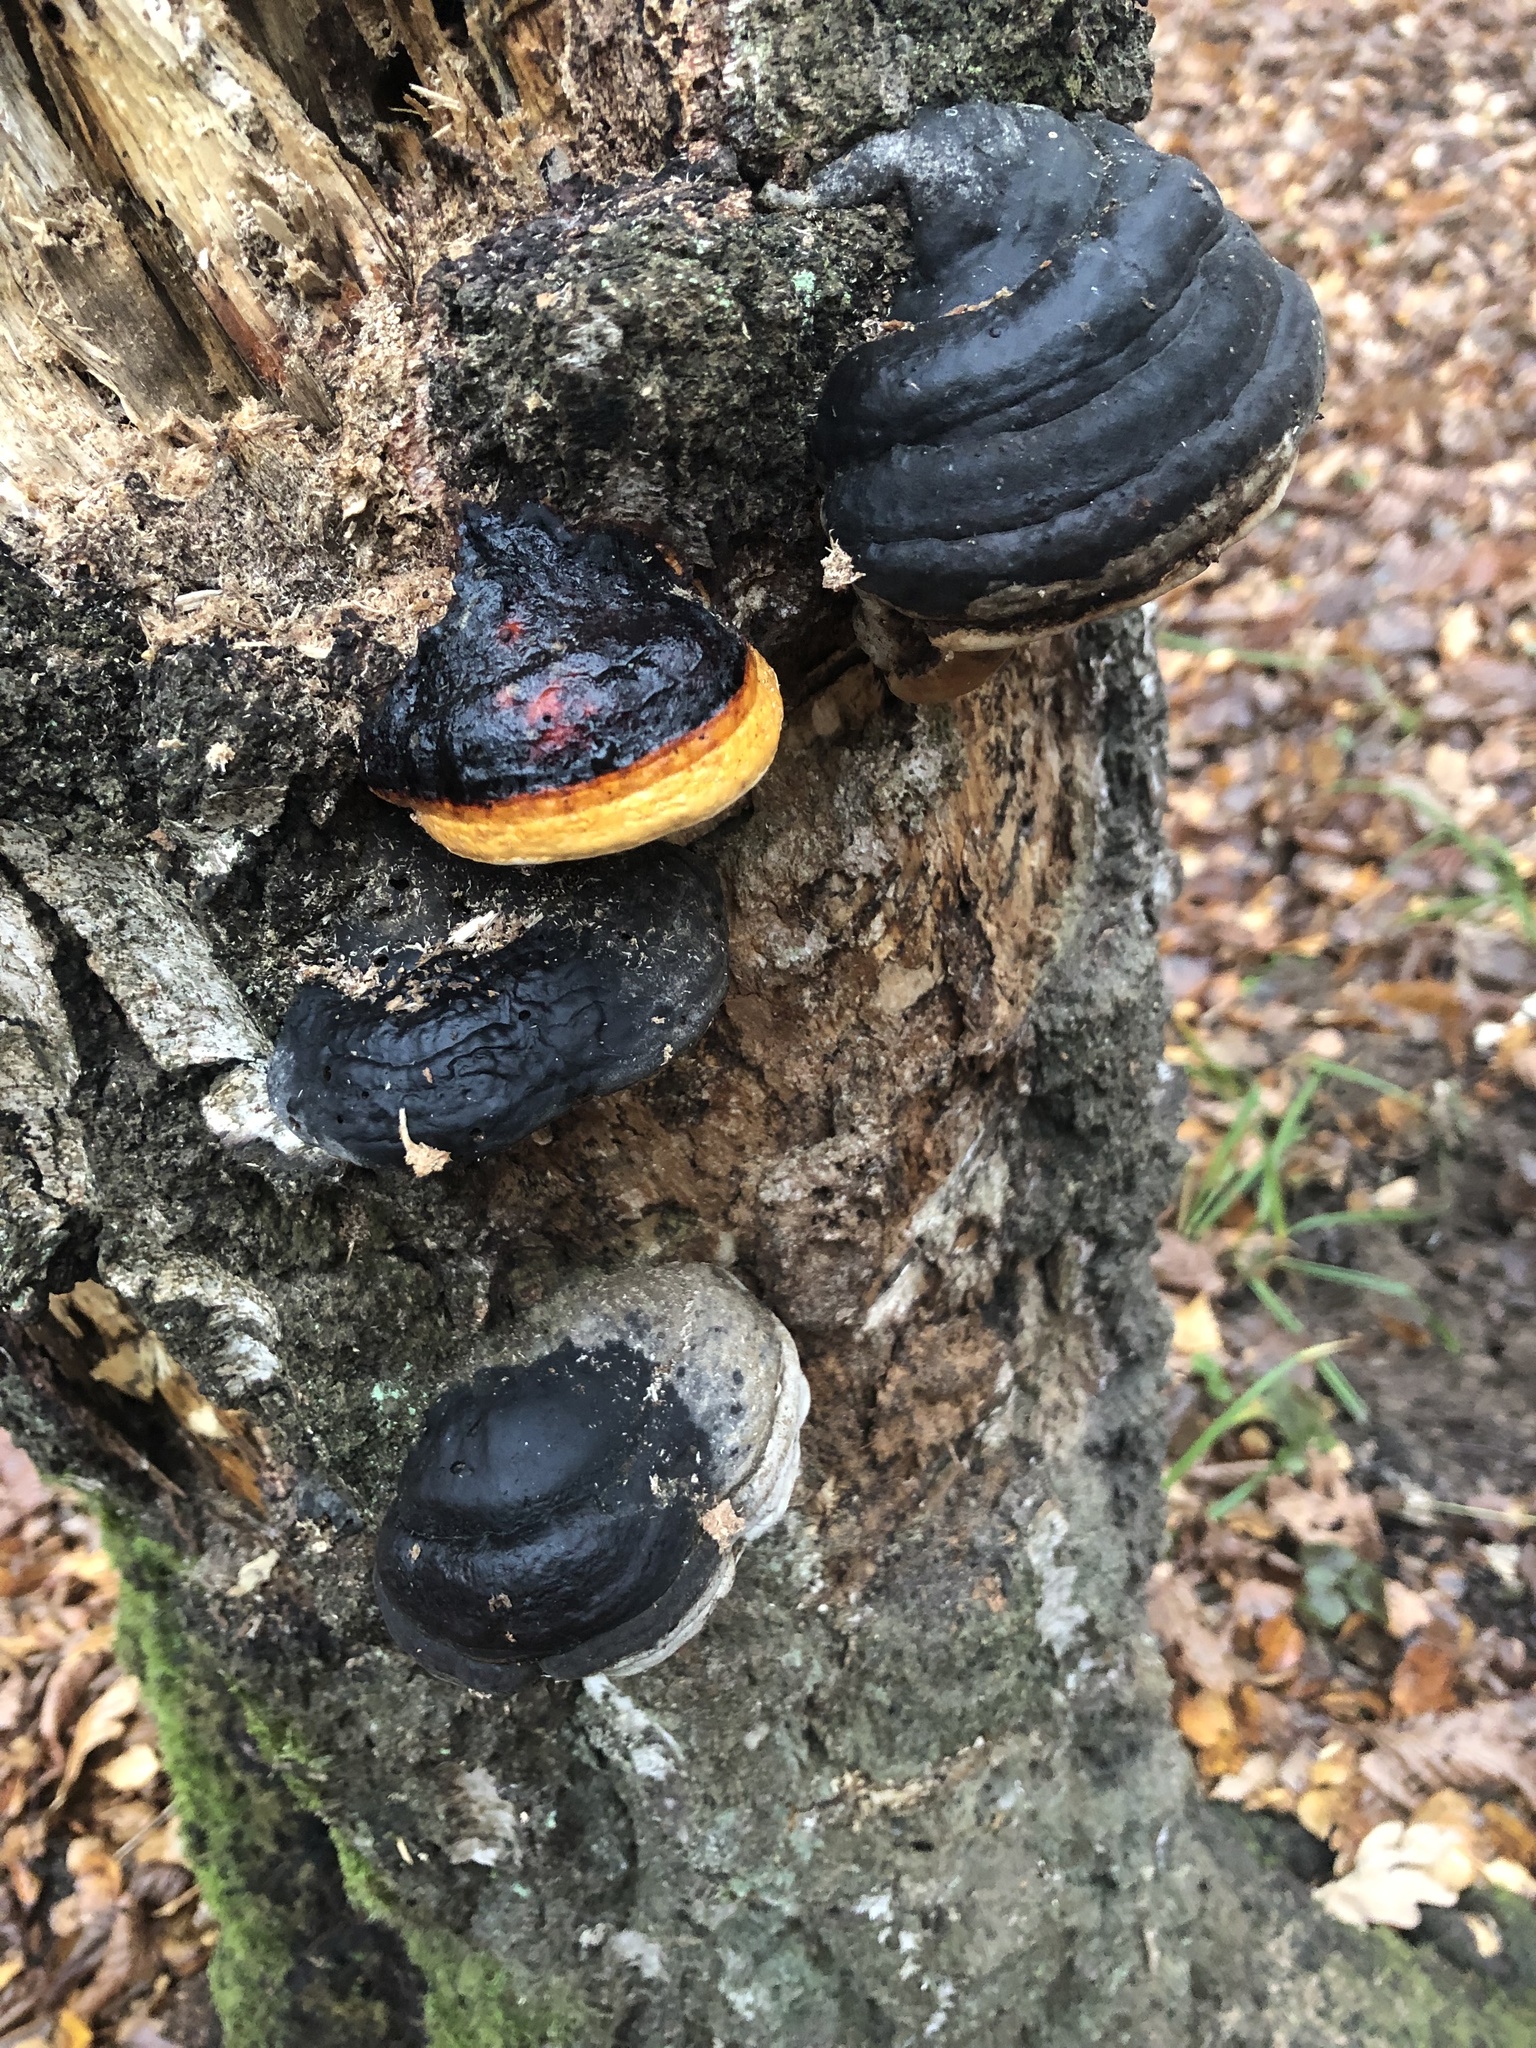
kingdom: Fungi
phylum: Basidiomycota
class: Agaricomycetes
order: Polyporales
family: Fomitopsidaceae
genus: Fomitopsis
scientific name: Fomitopsis pinicola
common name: Red-belted bracket
